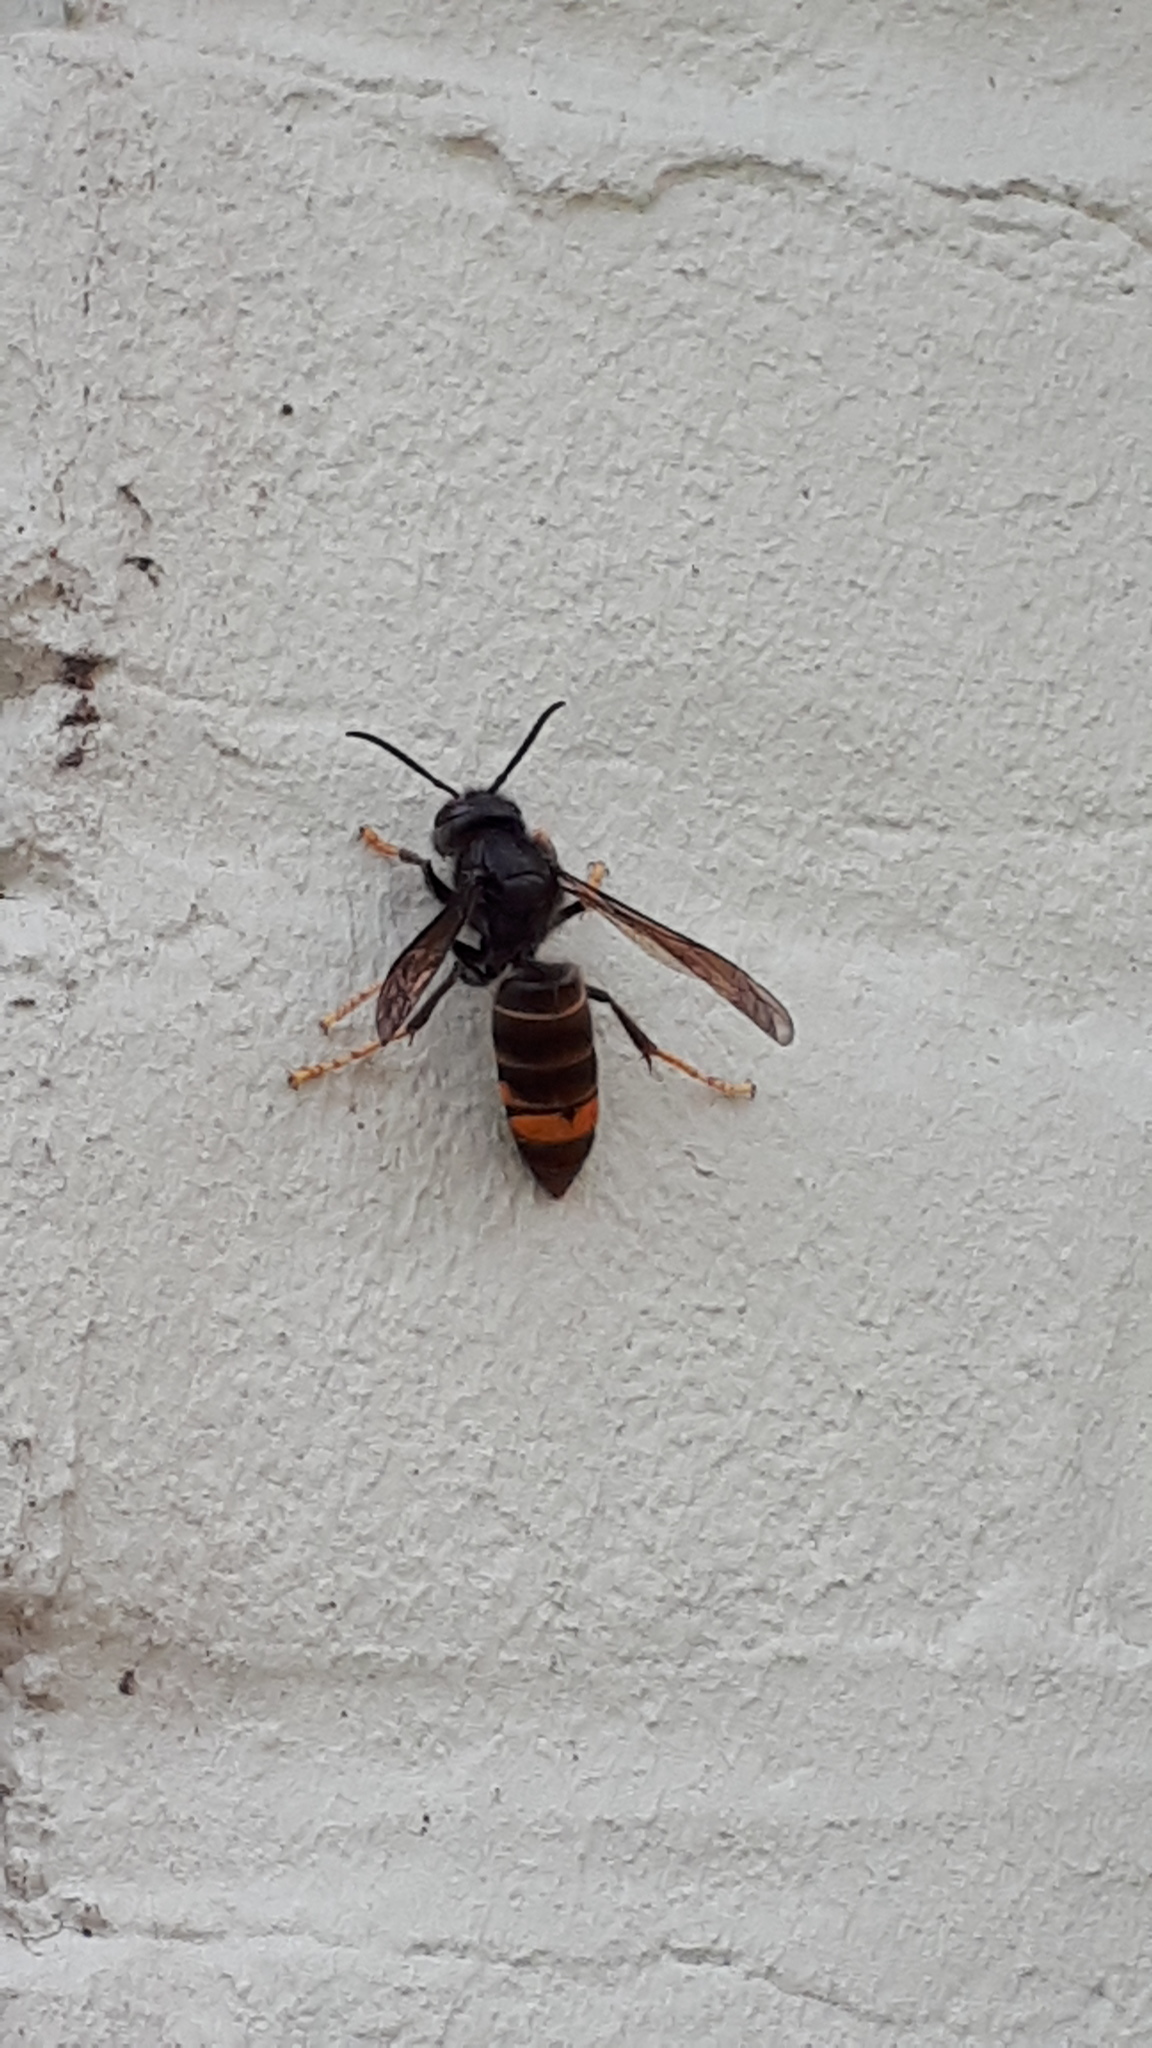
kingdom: Animalia
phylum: Arthropoda
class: Insecta
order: Hymenoptera
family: Vespidae
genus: Vespa
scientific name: Vespa velutina
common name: Asian hornet
